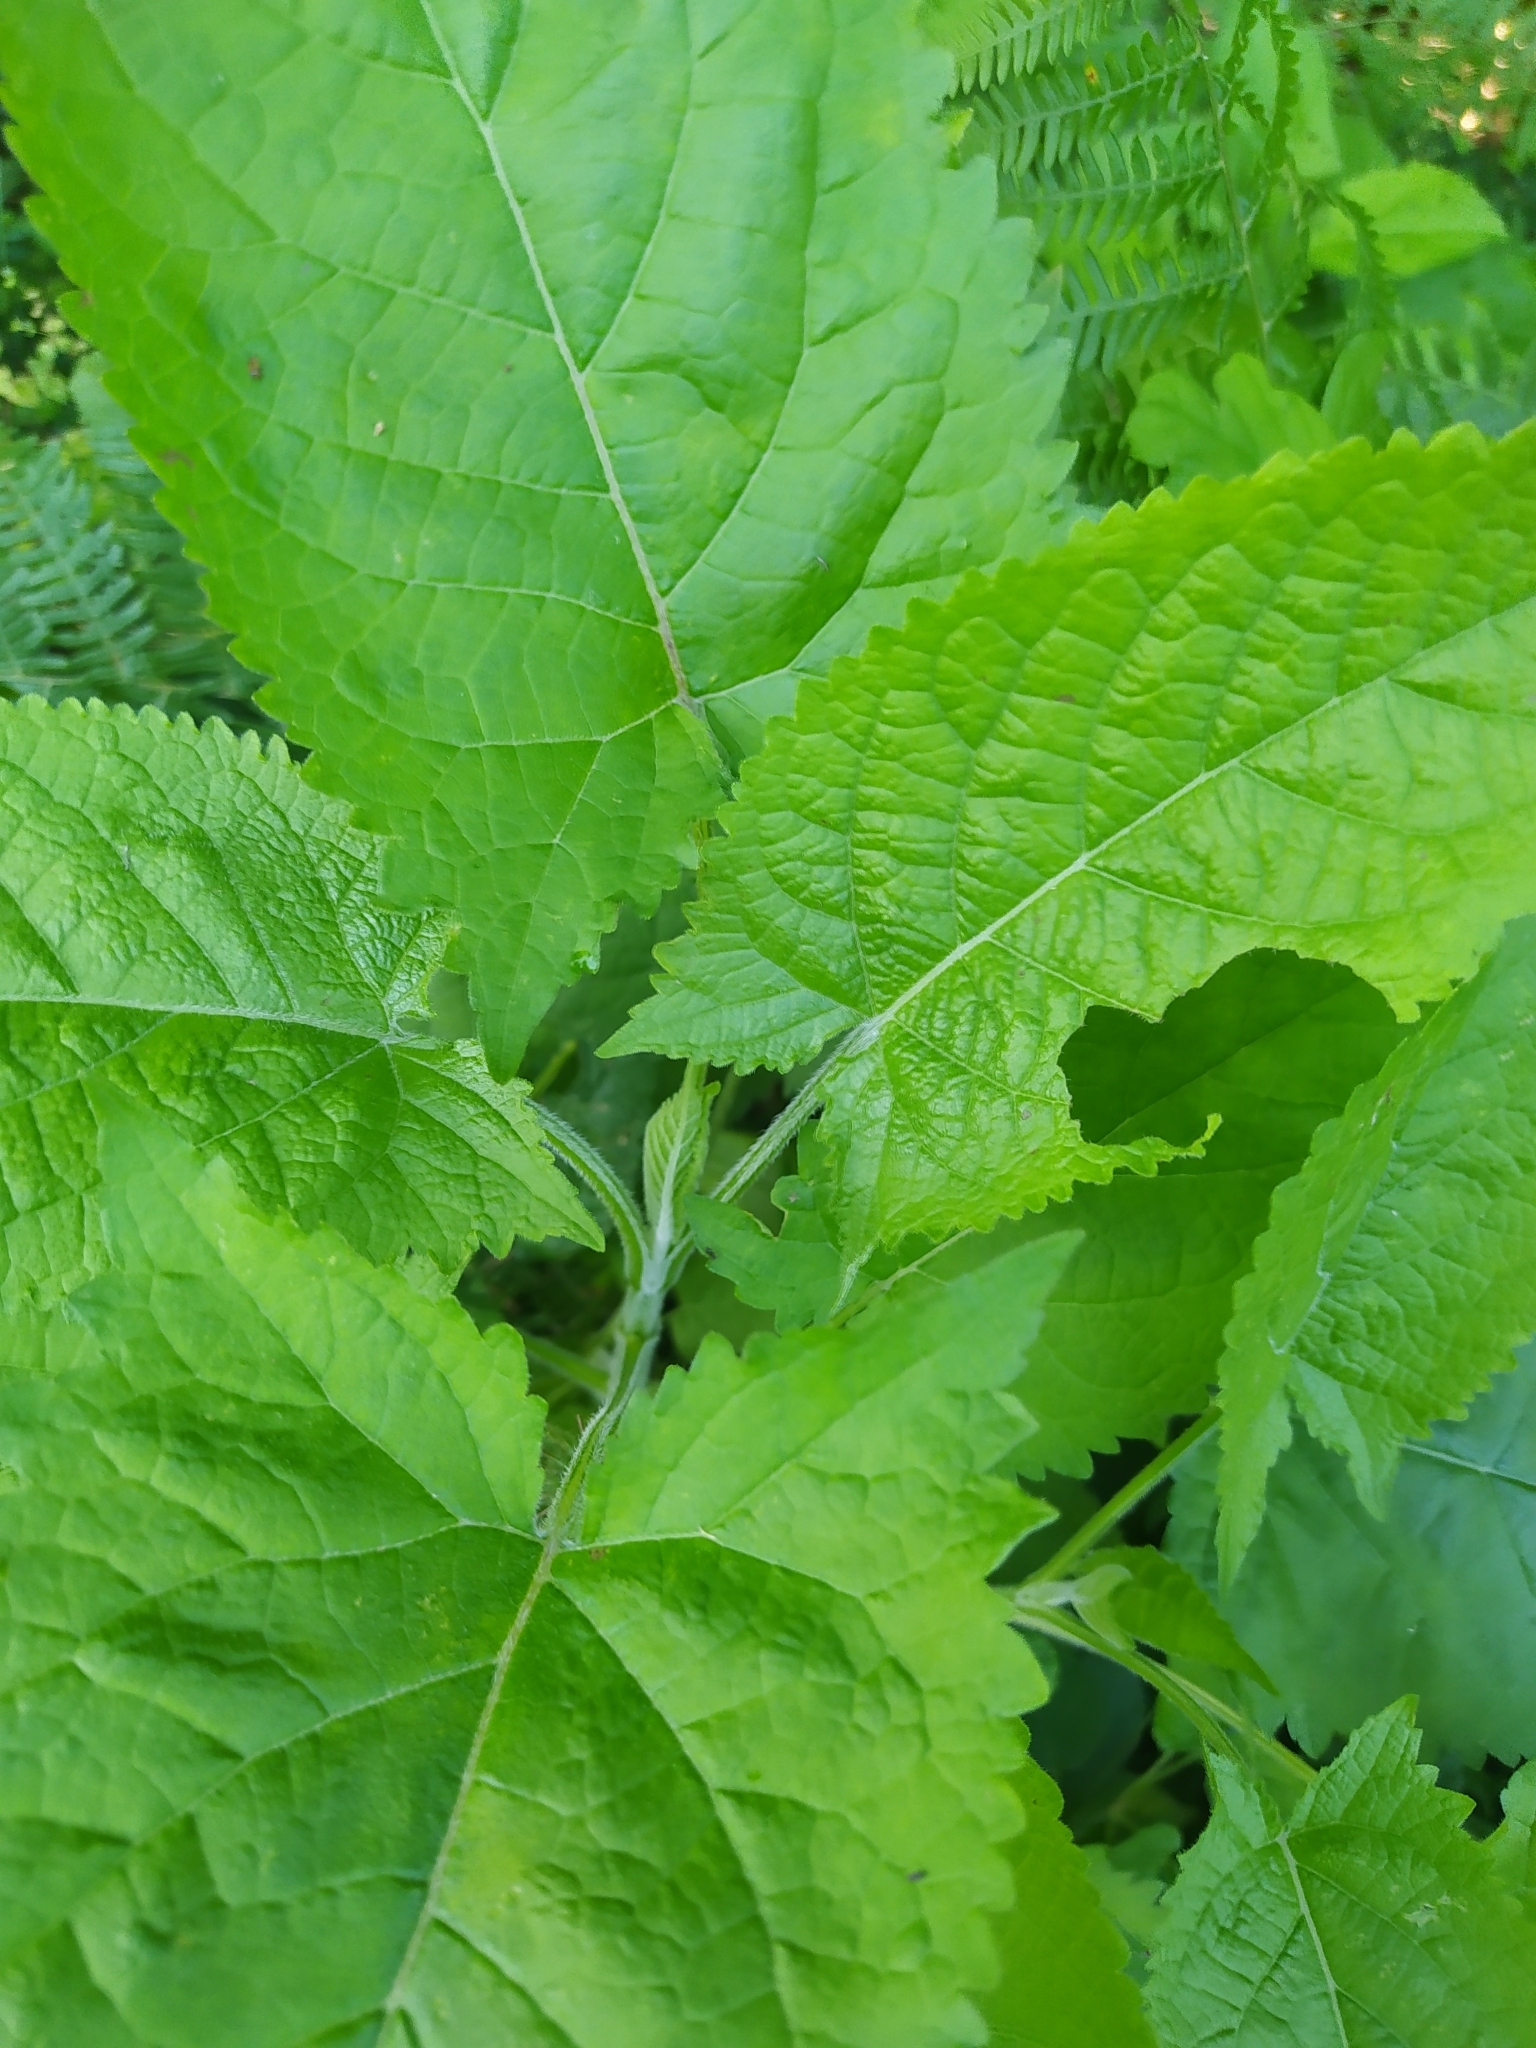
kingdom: Plantae
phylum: Tracheophyta
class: Magnoliopsida
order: Lamiales
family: Lamiaceae
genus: Salvia
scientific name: Salvia glutinosa
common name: Sticky clary
